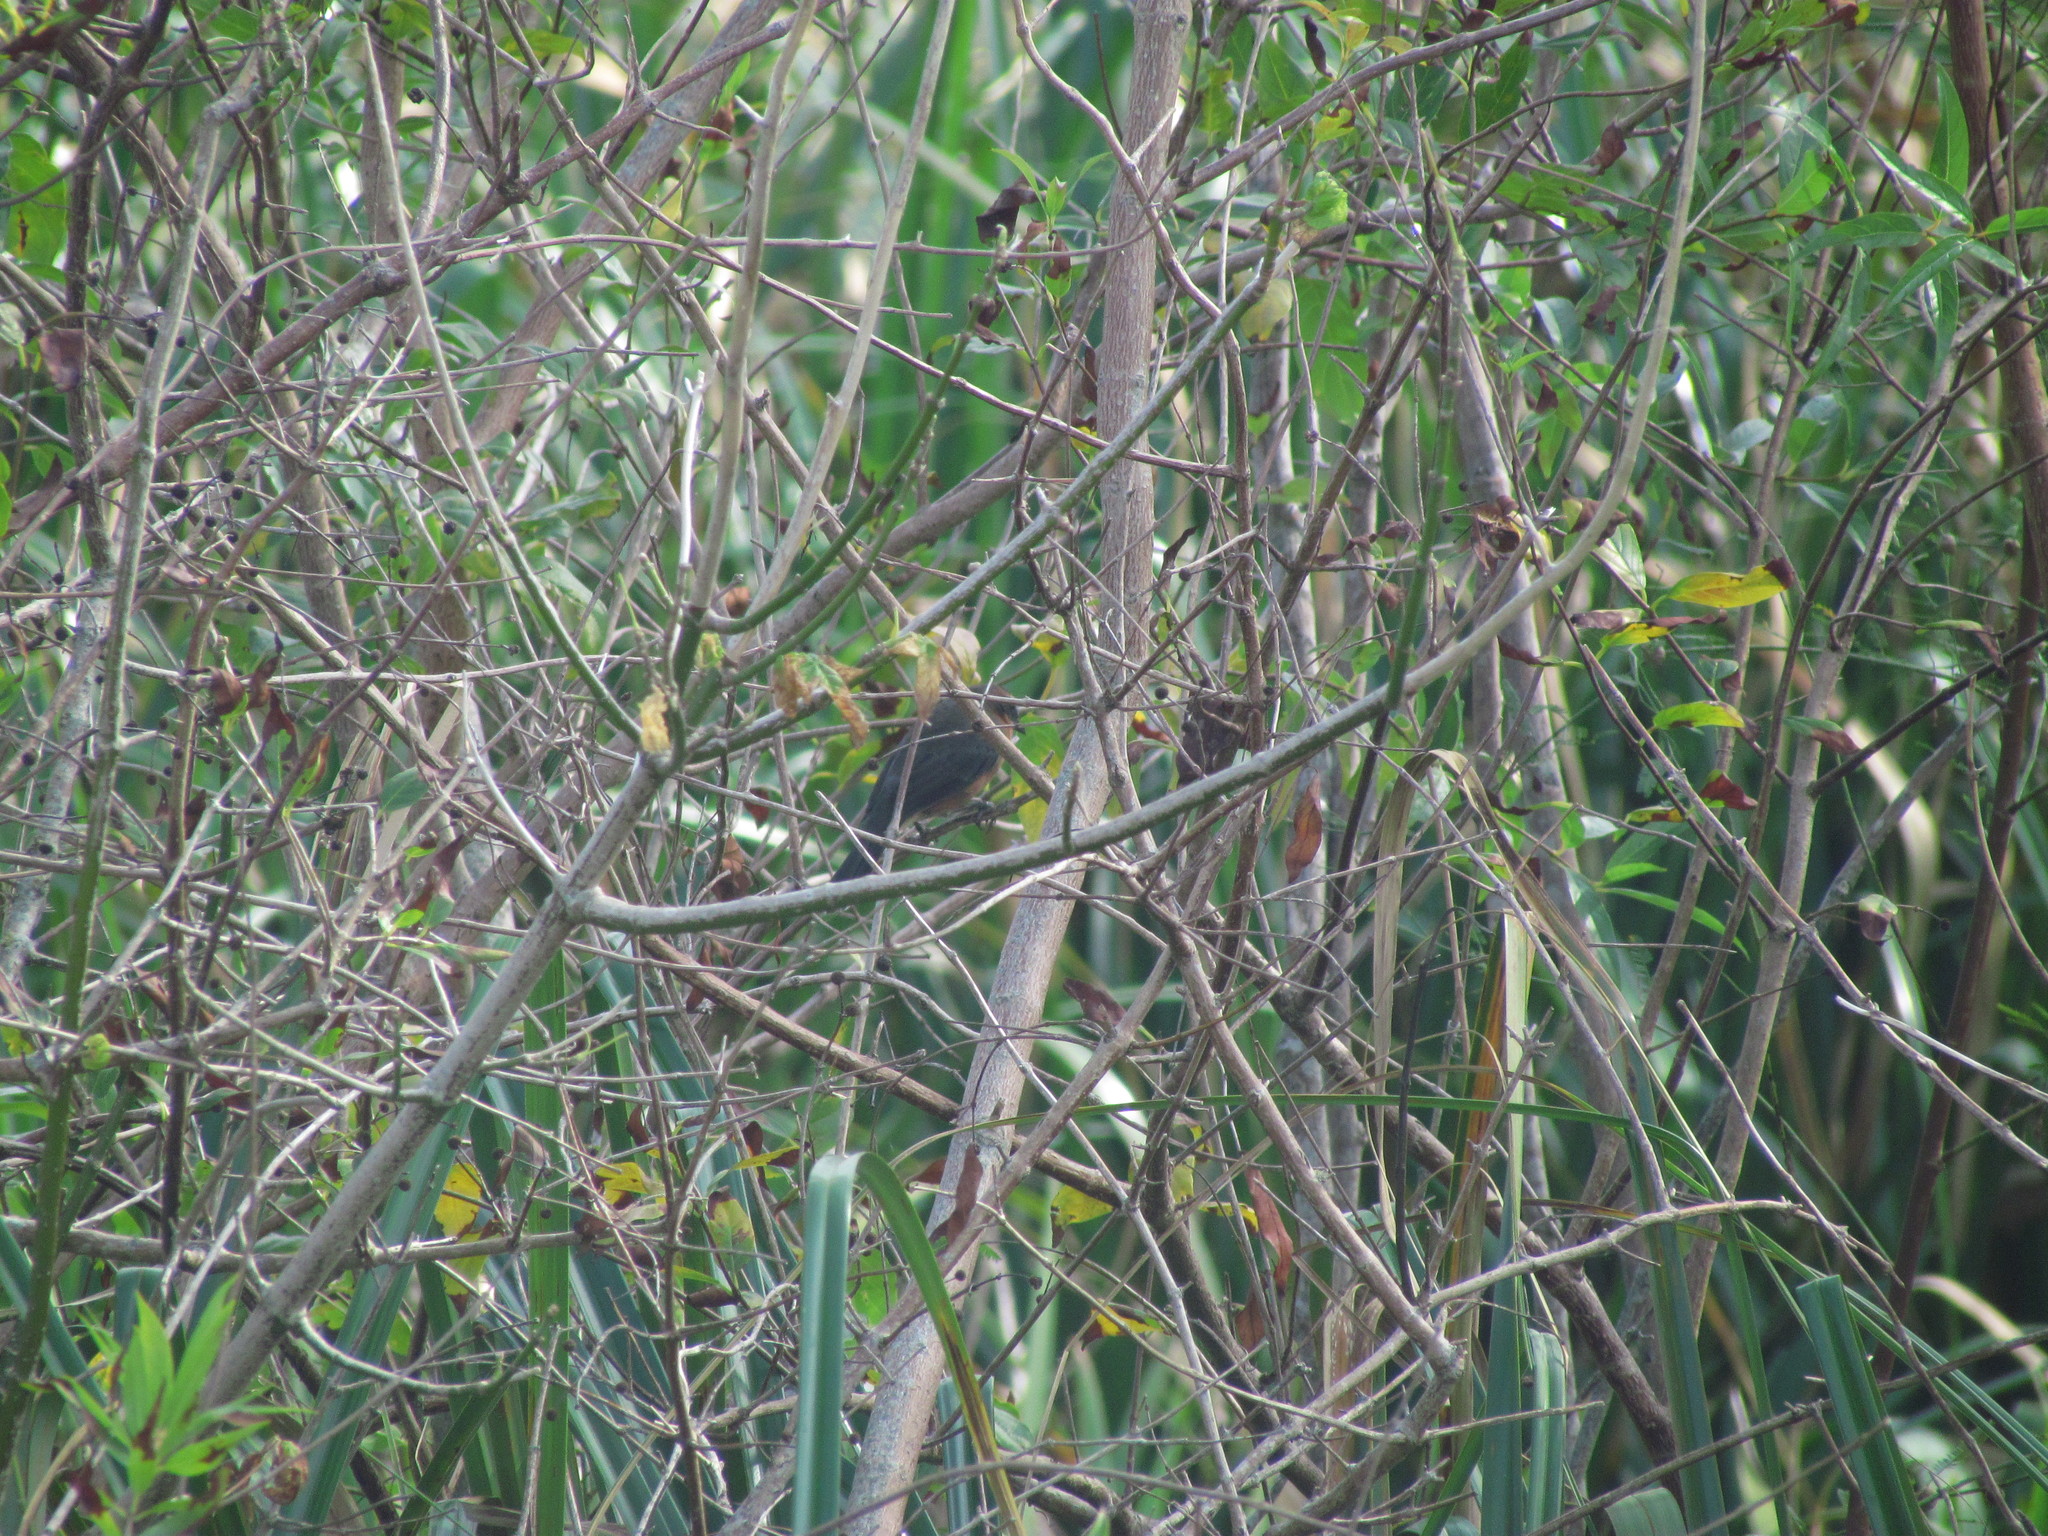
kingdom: Animalia
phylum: Chordata
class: Aves
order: Passeriformes
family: Thraupidae
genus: Poospiza
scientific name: Poospiza nigrorufa
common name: Black-and-rufous warbling finch
